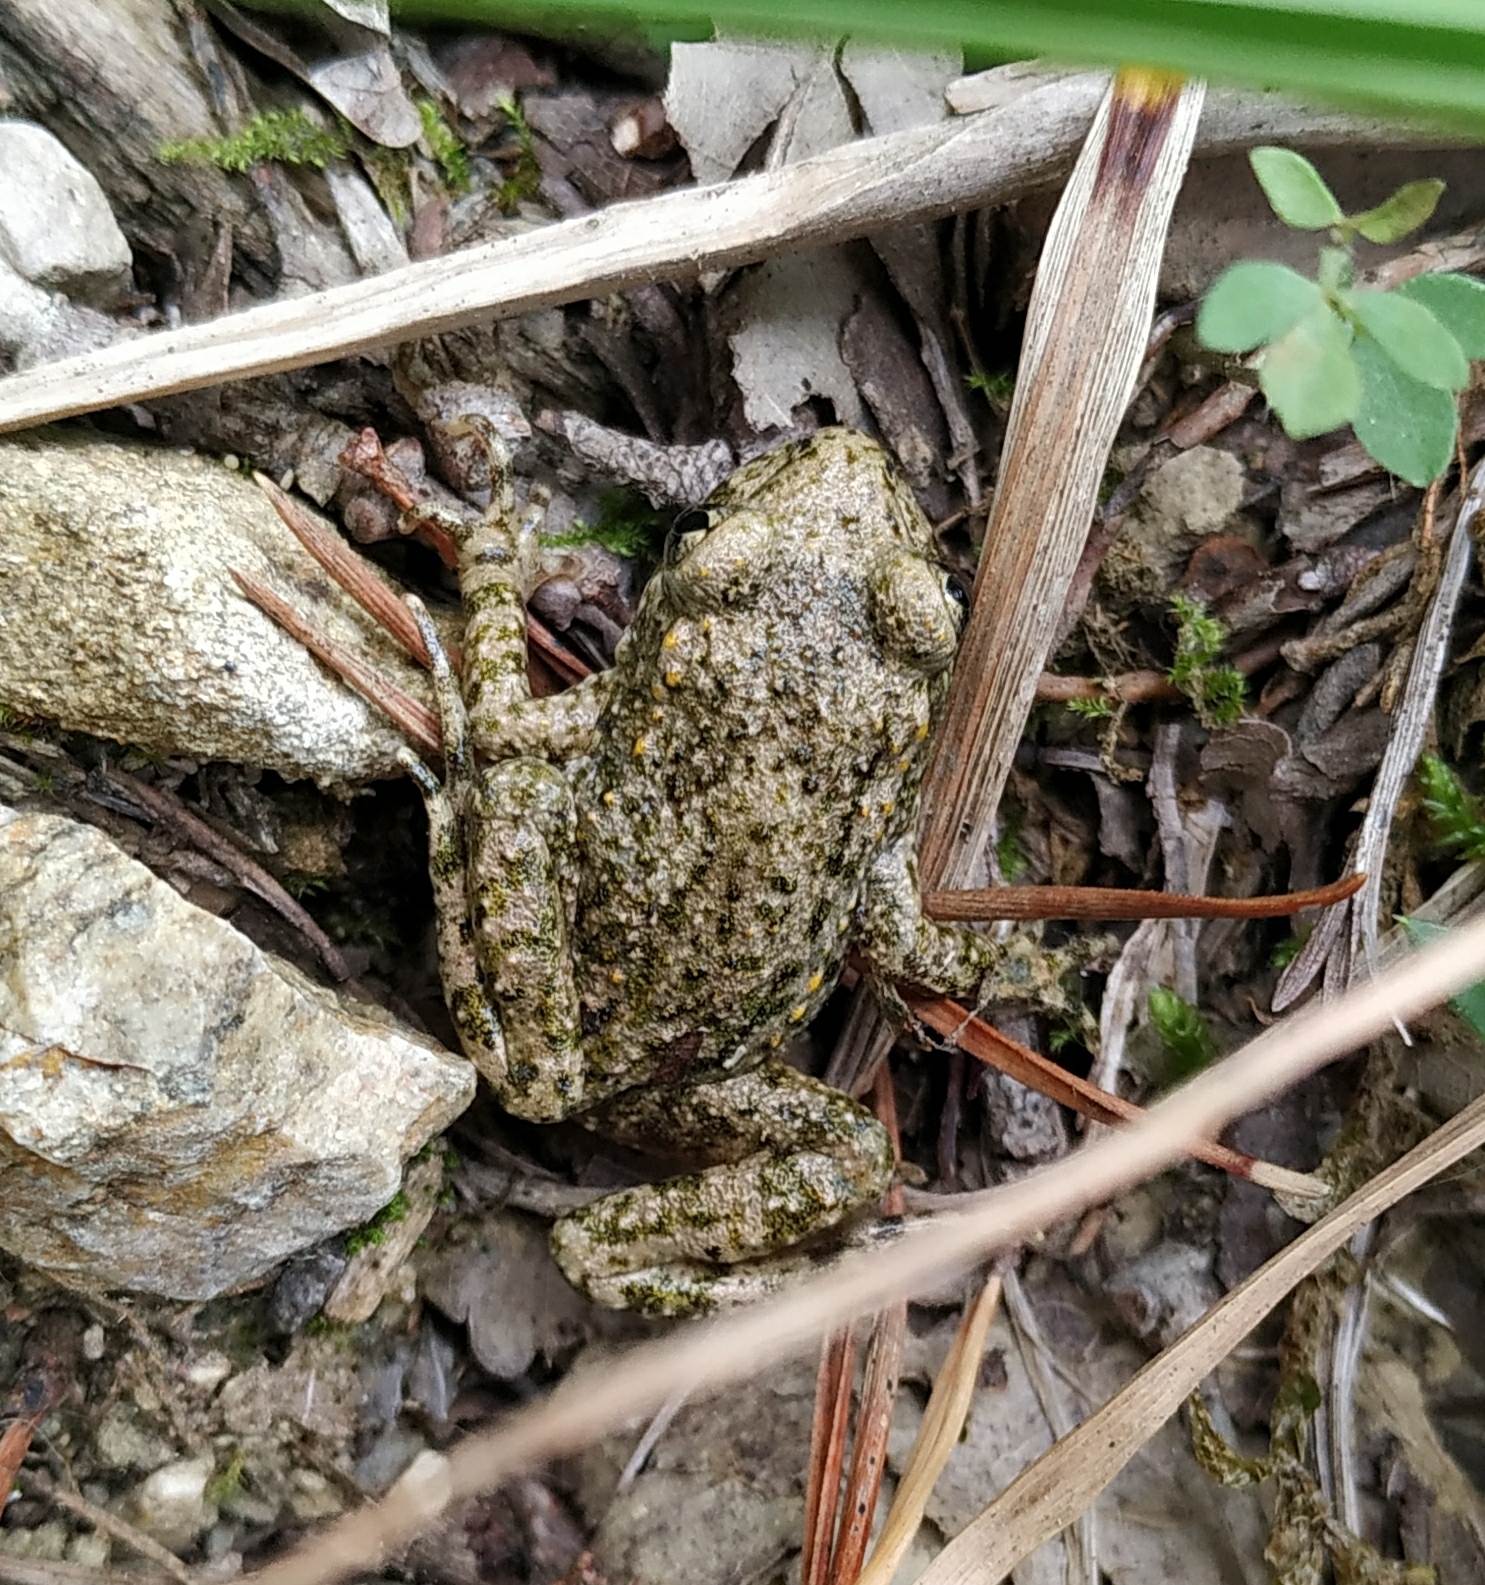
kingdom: Animalia
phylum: Chordata
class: Amphibia
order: Anura
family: Alytidae
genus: Alytes
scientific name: Alytes obstetricans
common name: Midwife toad
